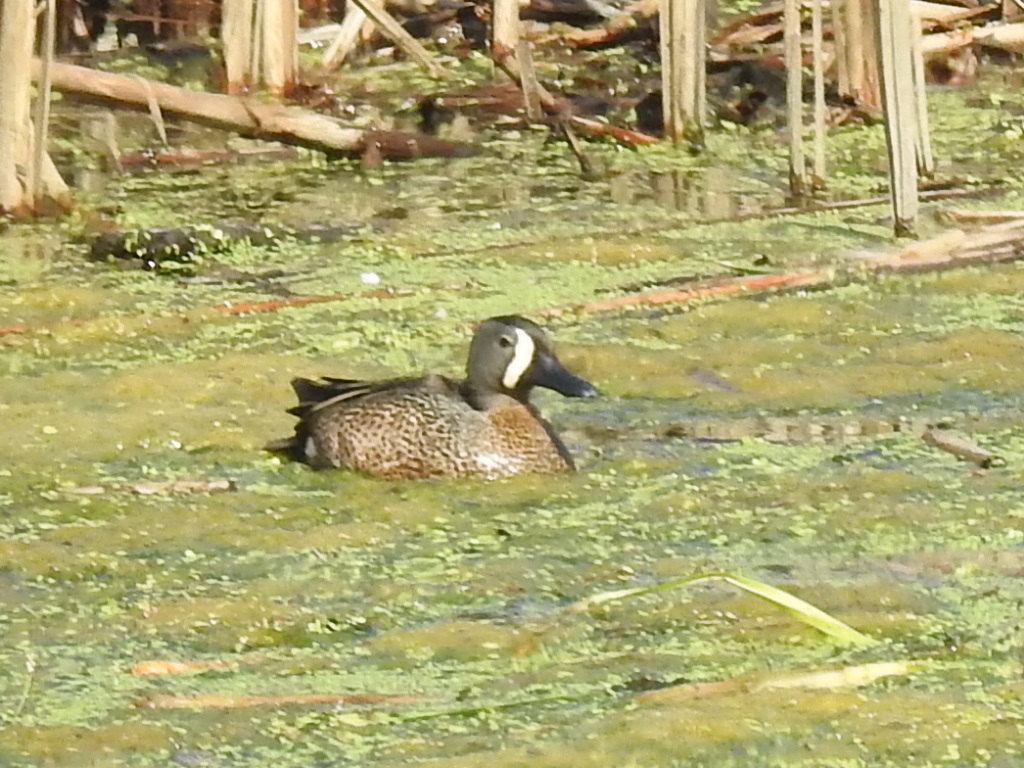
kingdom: Animalia
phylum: Chordata
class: Aves
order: Anseriformes
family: Anatidae
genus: Spatula
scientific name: Spatula discors
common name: Blue-winged teal
